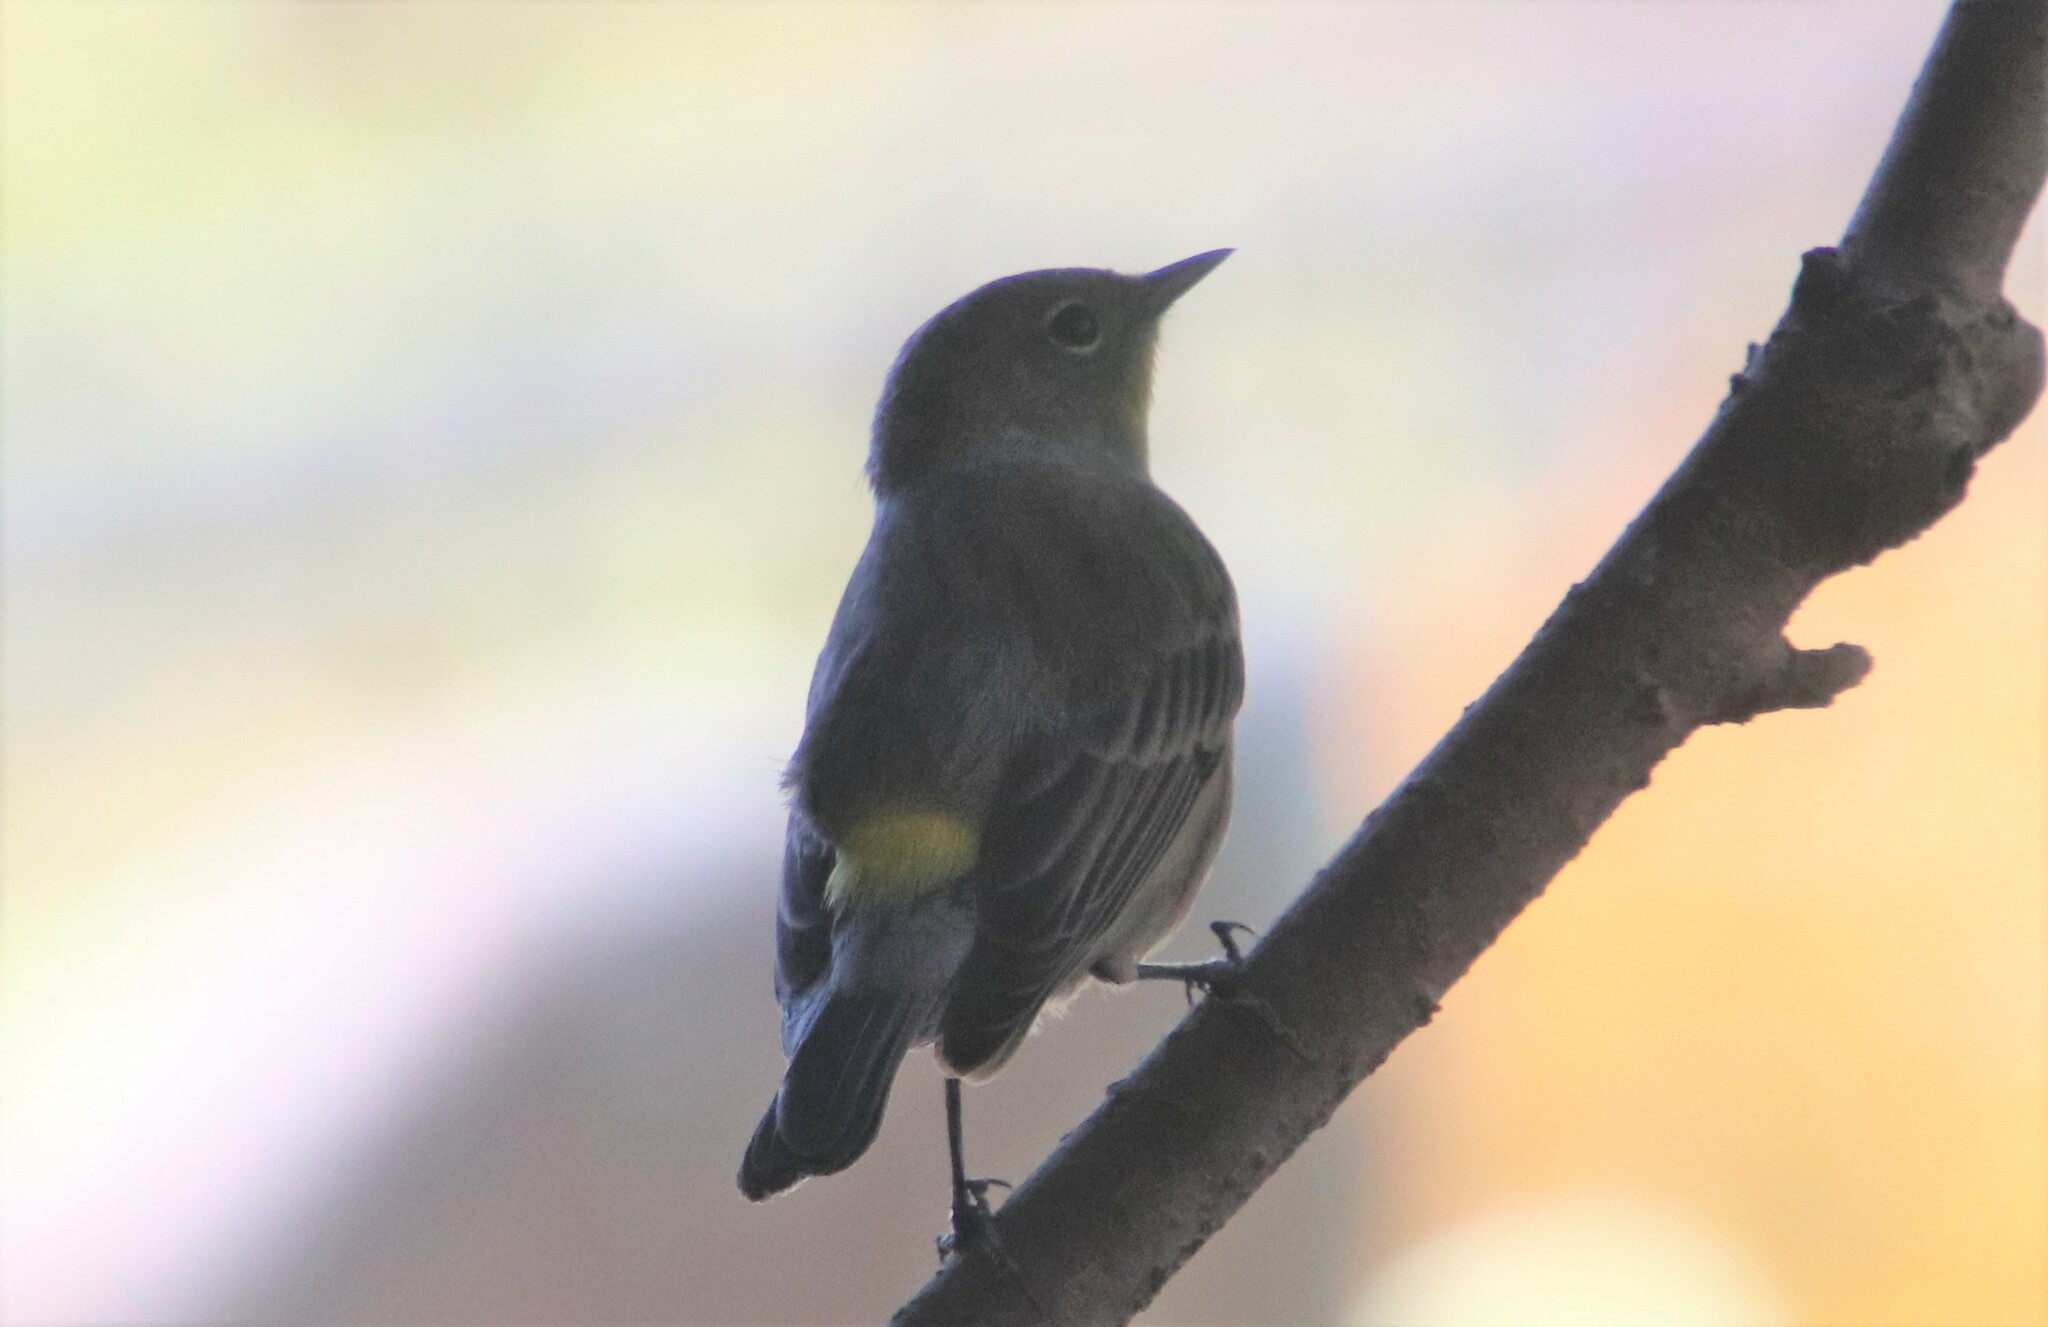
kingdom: Animalia
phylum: Chordata
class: Aves
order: Passeriformes
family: Parulidae
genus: Setophaga
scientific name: Setophaga coronata
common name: Myrtle warbler
